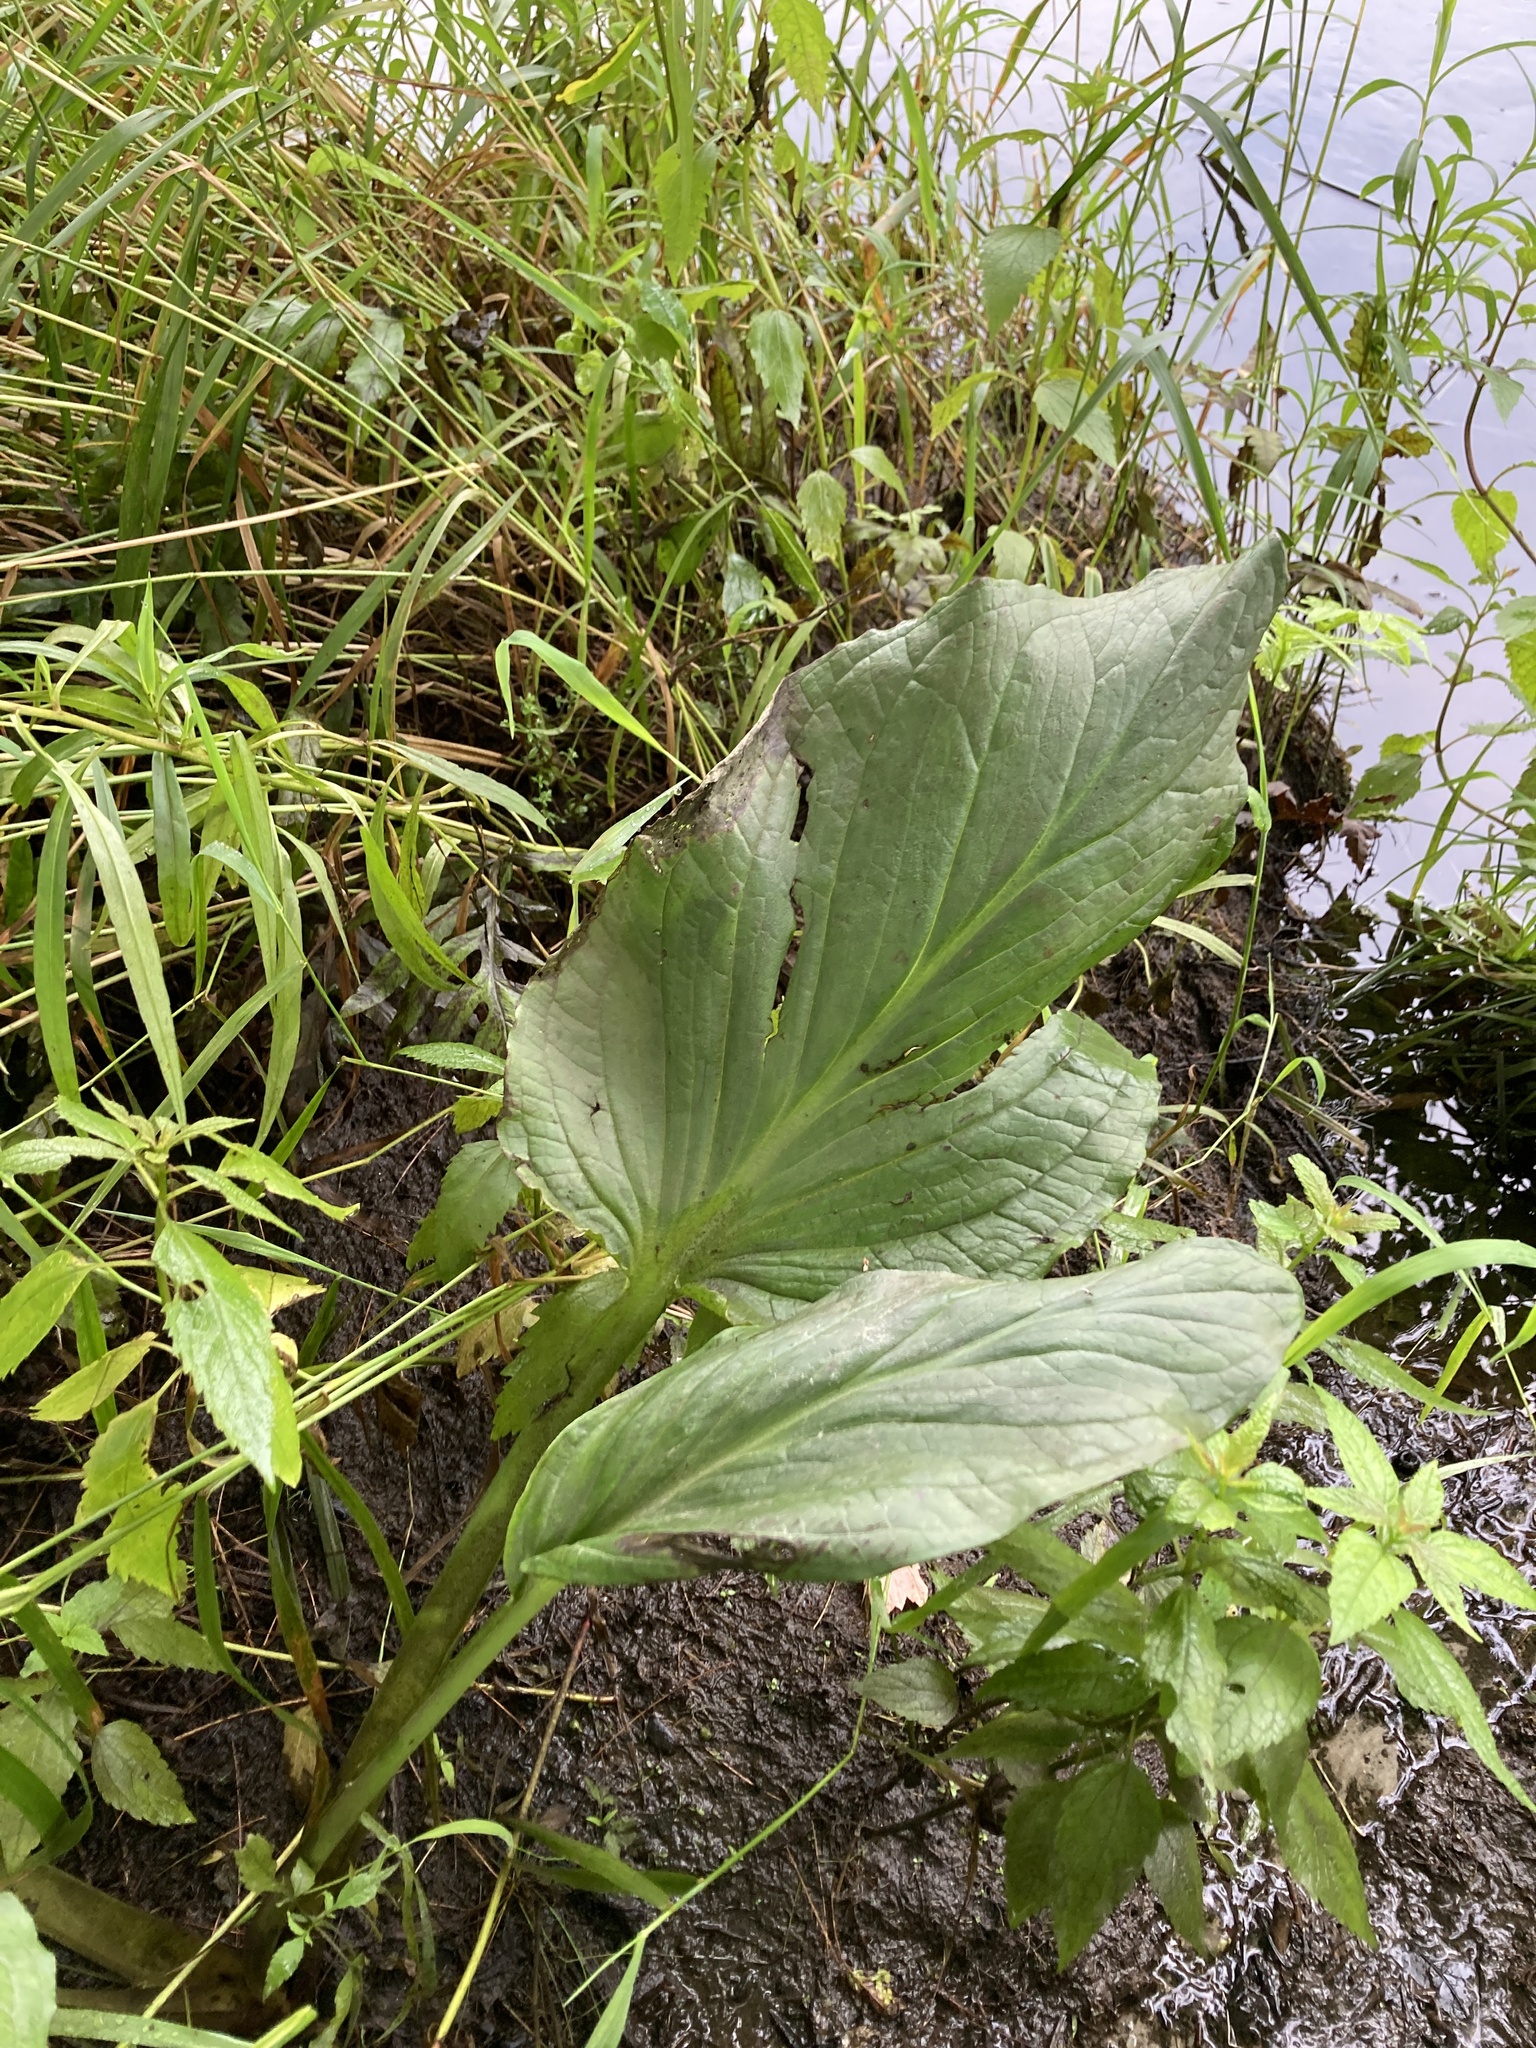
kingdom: Plantae
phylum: Tracheophyta
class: Liliopsida
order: Alismatales
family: Araceae
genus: Symplocarpus
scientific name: Symplocarpus foetidus
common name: Eastern skunk cabbage
